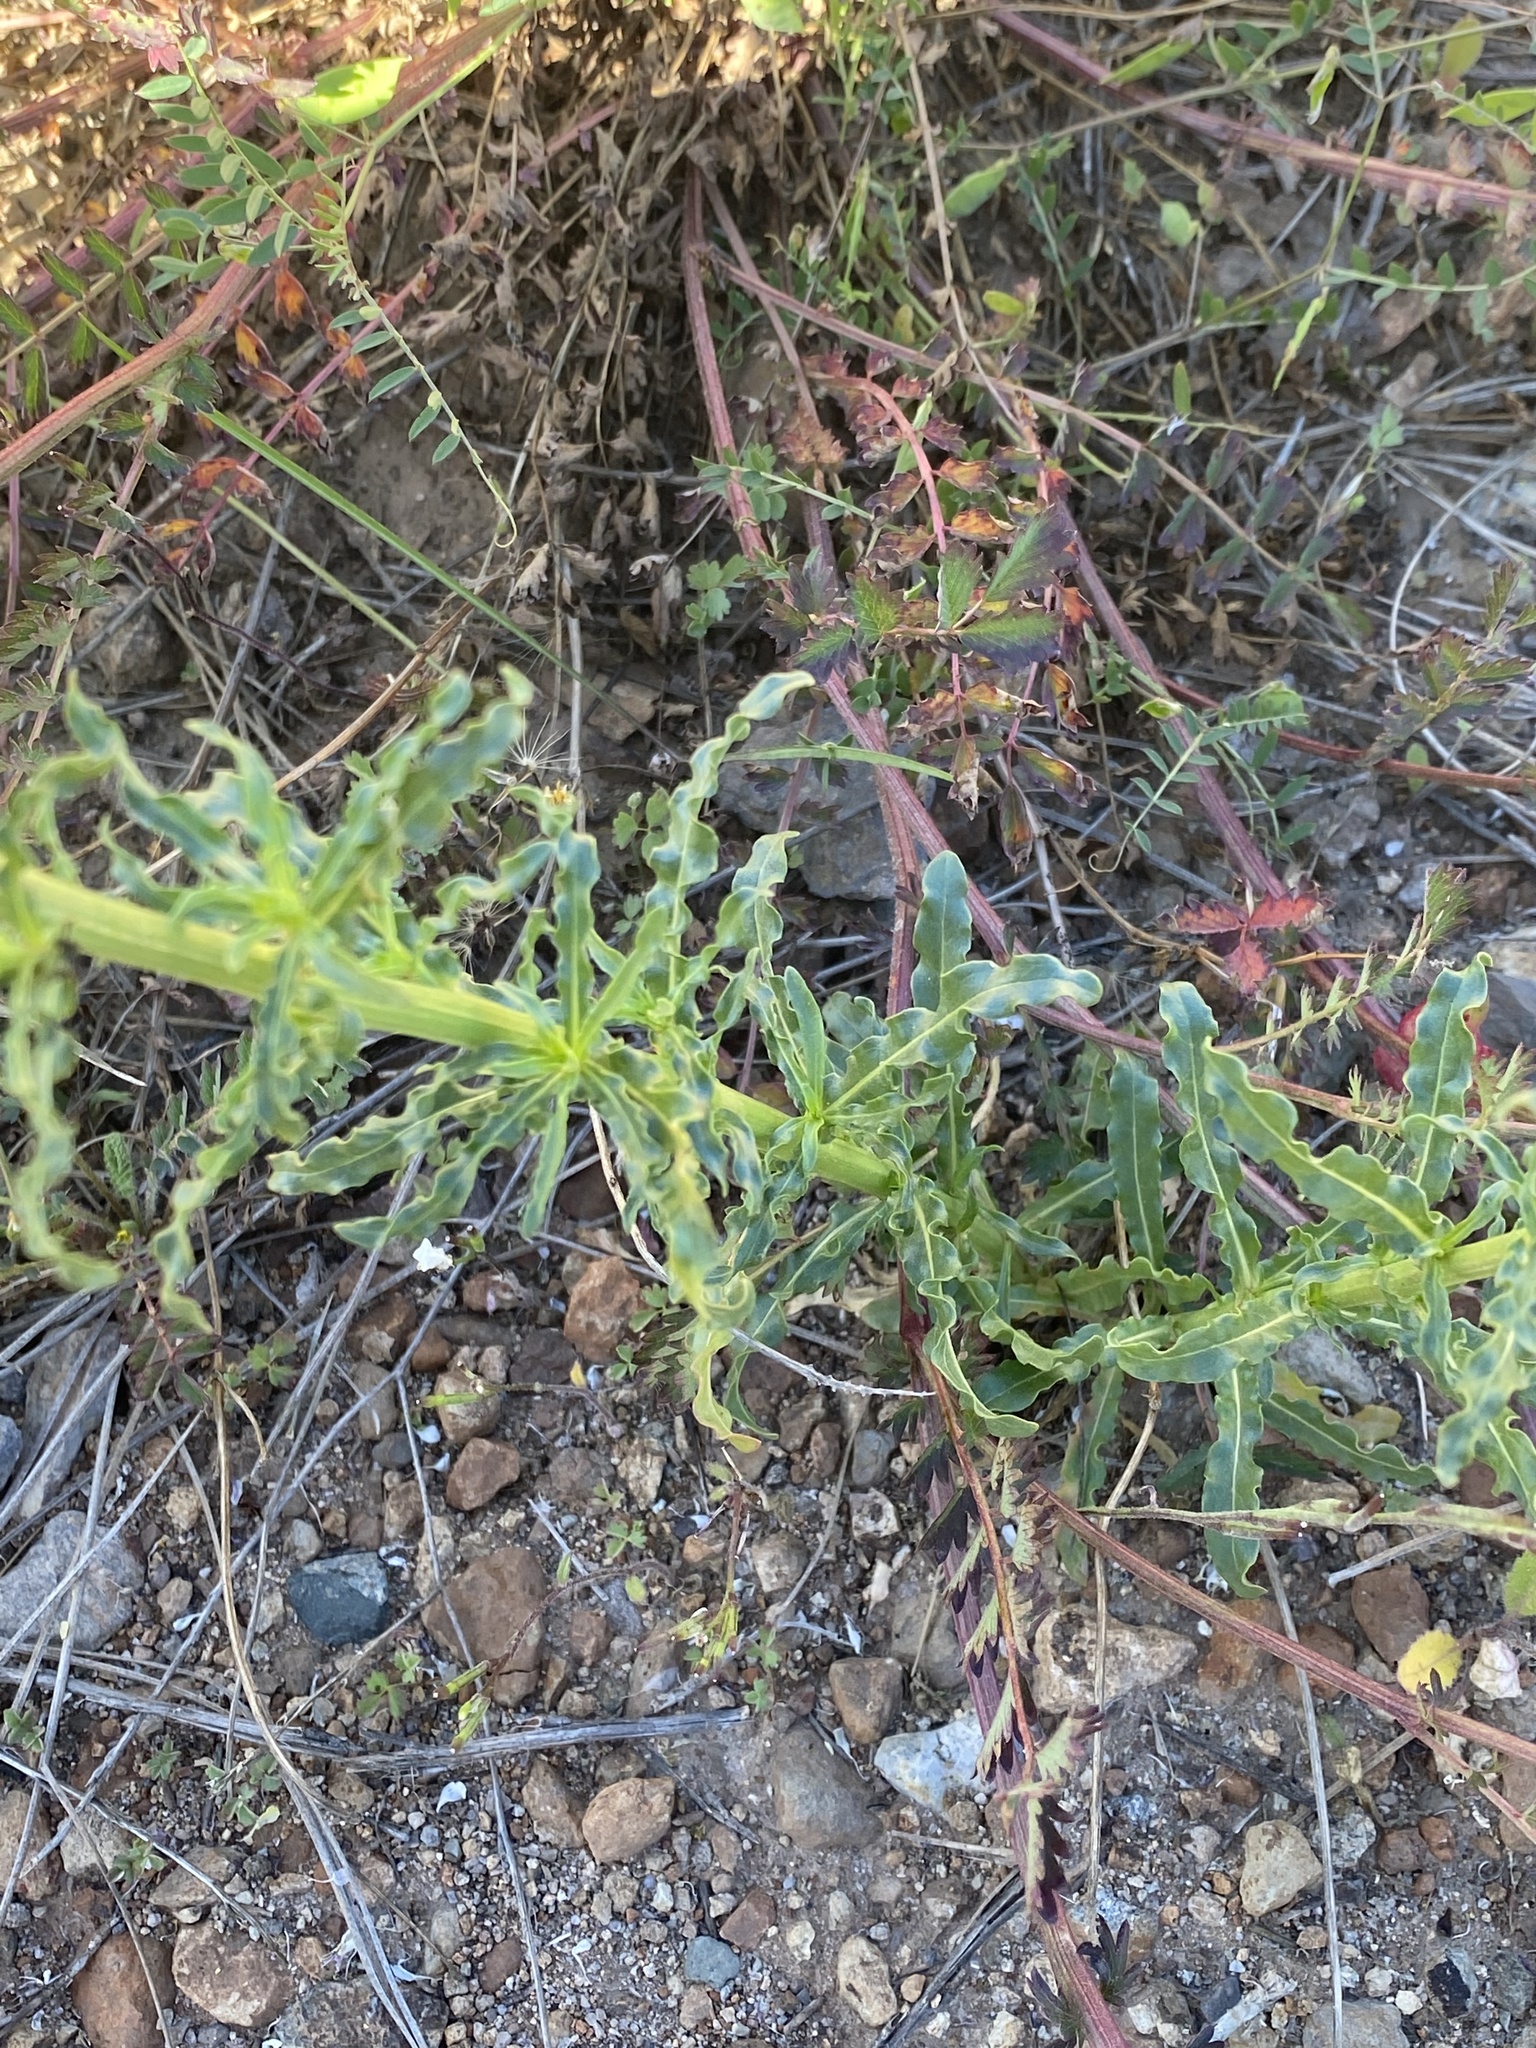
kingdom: Plantae
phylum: Tracheophyta
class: Magnoliopsida
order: Brassicales
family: Resedaceae
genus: Reseda
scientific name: Reseda luteola
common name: Weld
